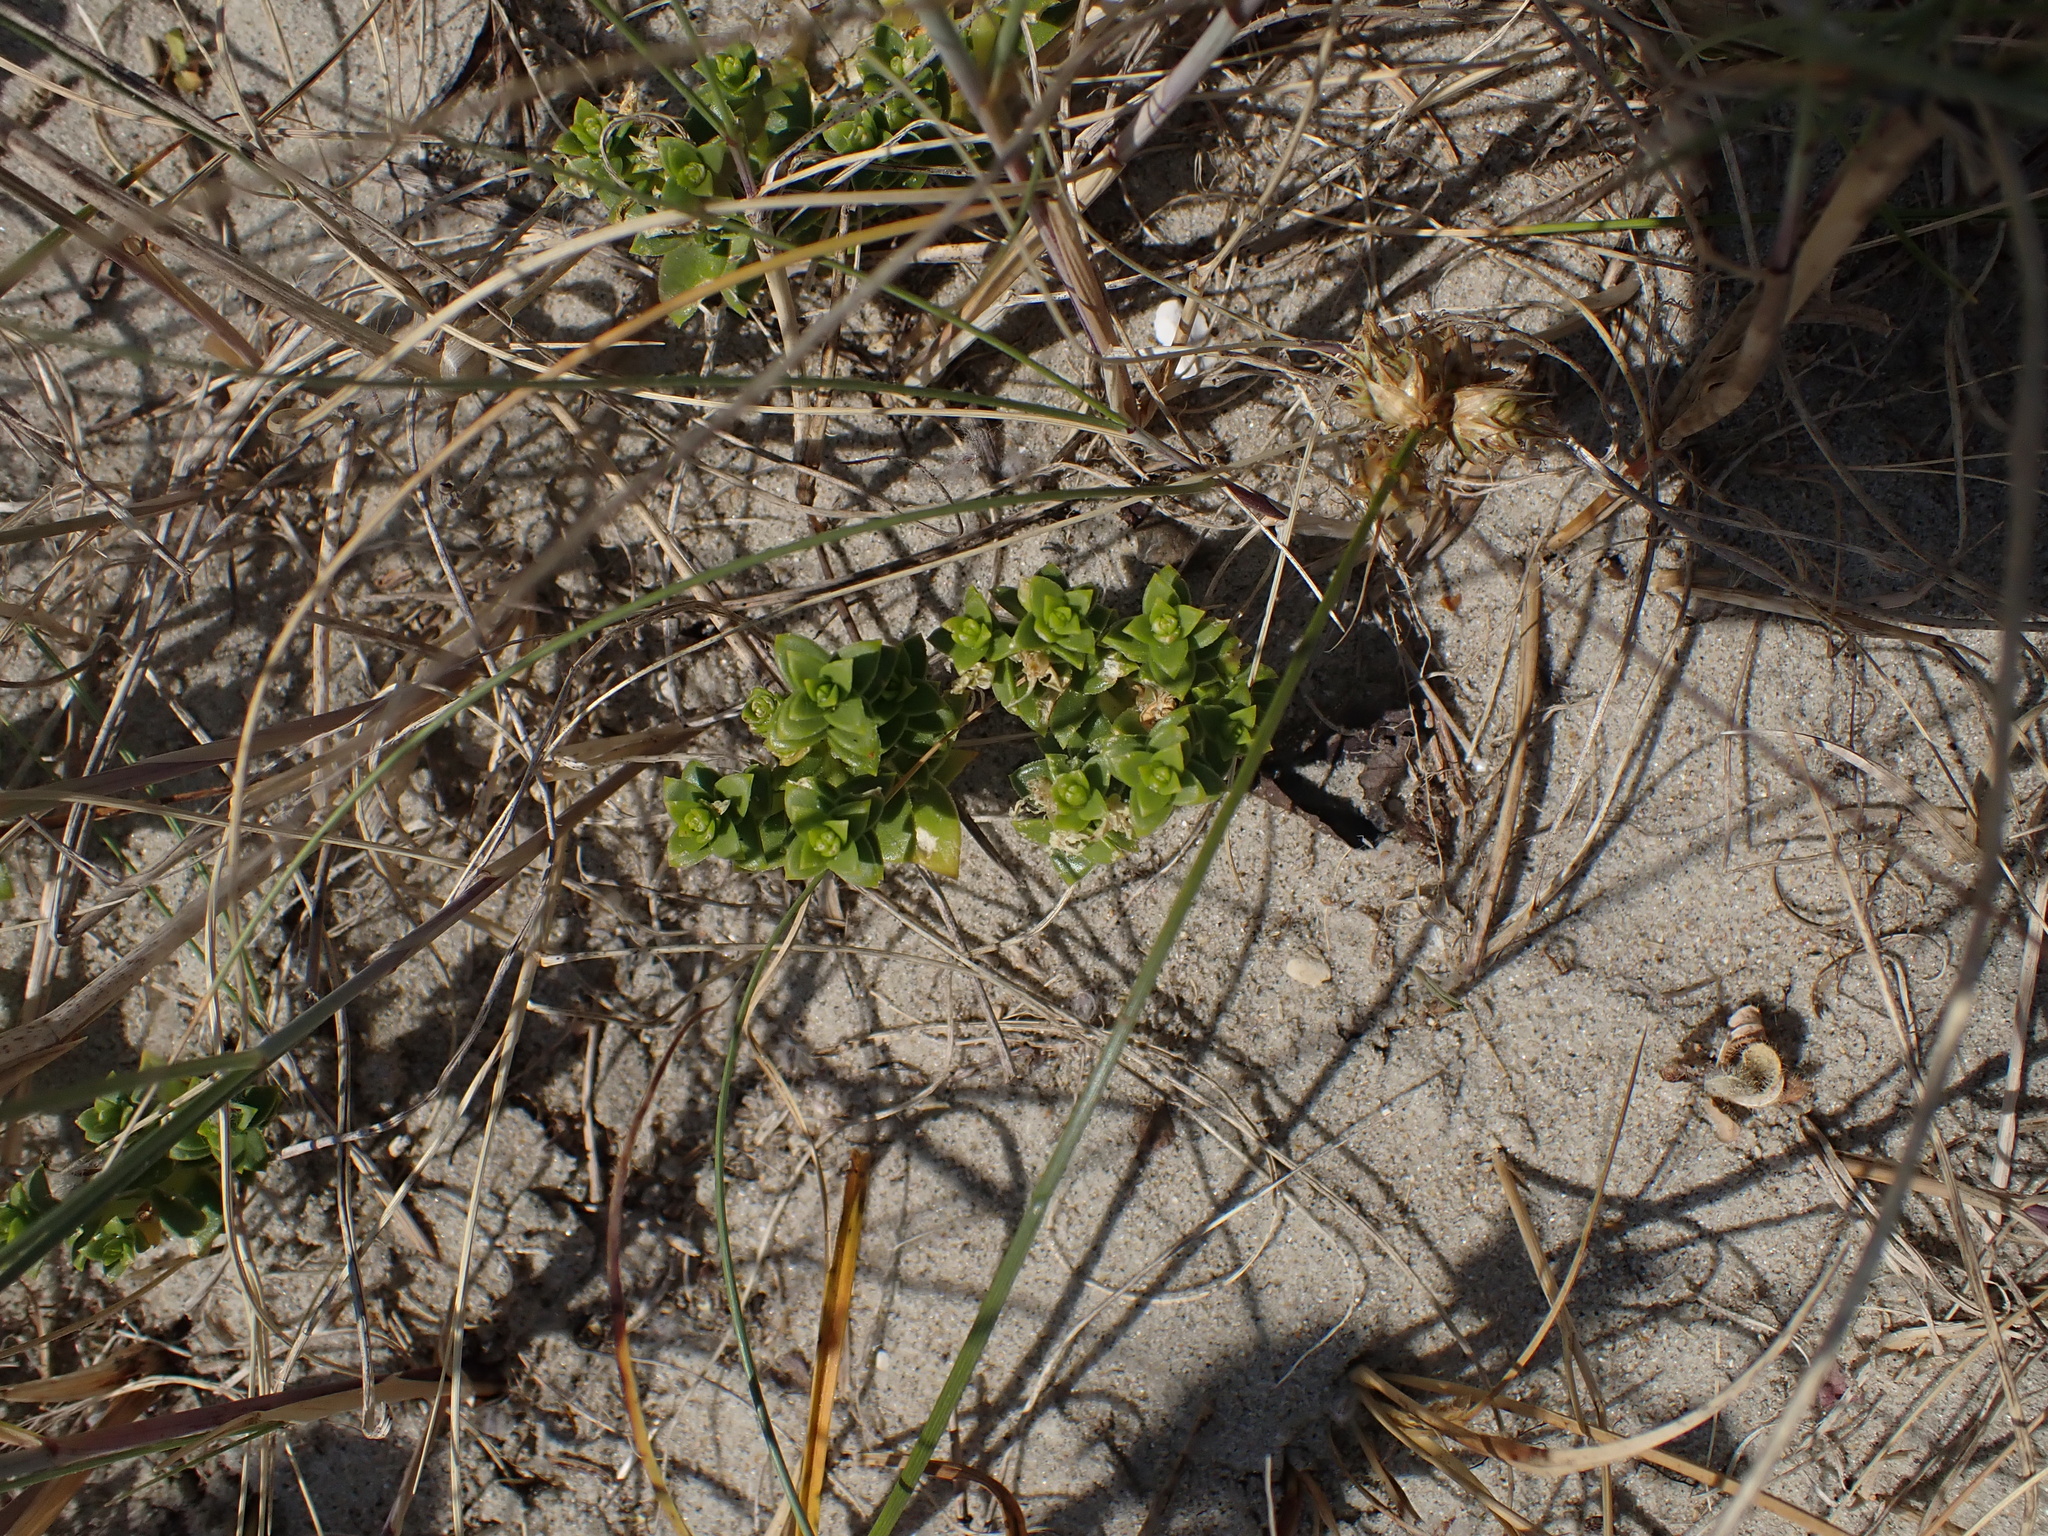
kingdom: Plantae
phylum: Tracheophyta
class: Magnoliopsida
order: Caryophyllales
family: Caryophyllaceae
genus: Honckenya
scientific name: Honckenya peploides
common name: Sea sandwort
